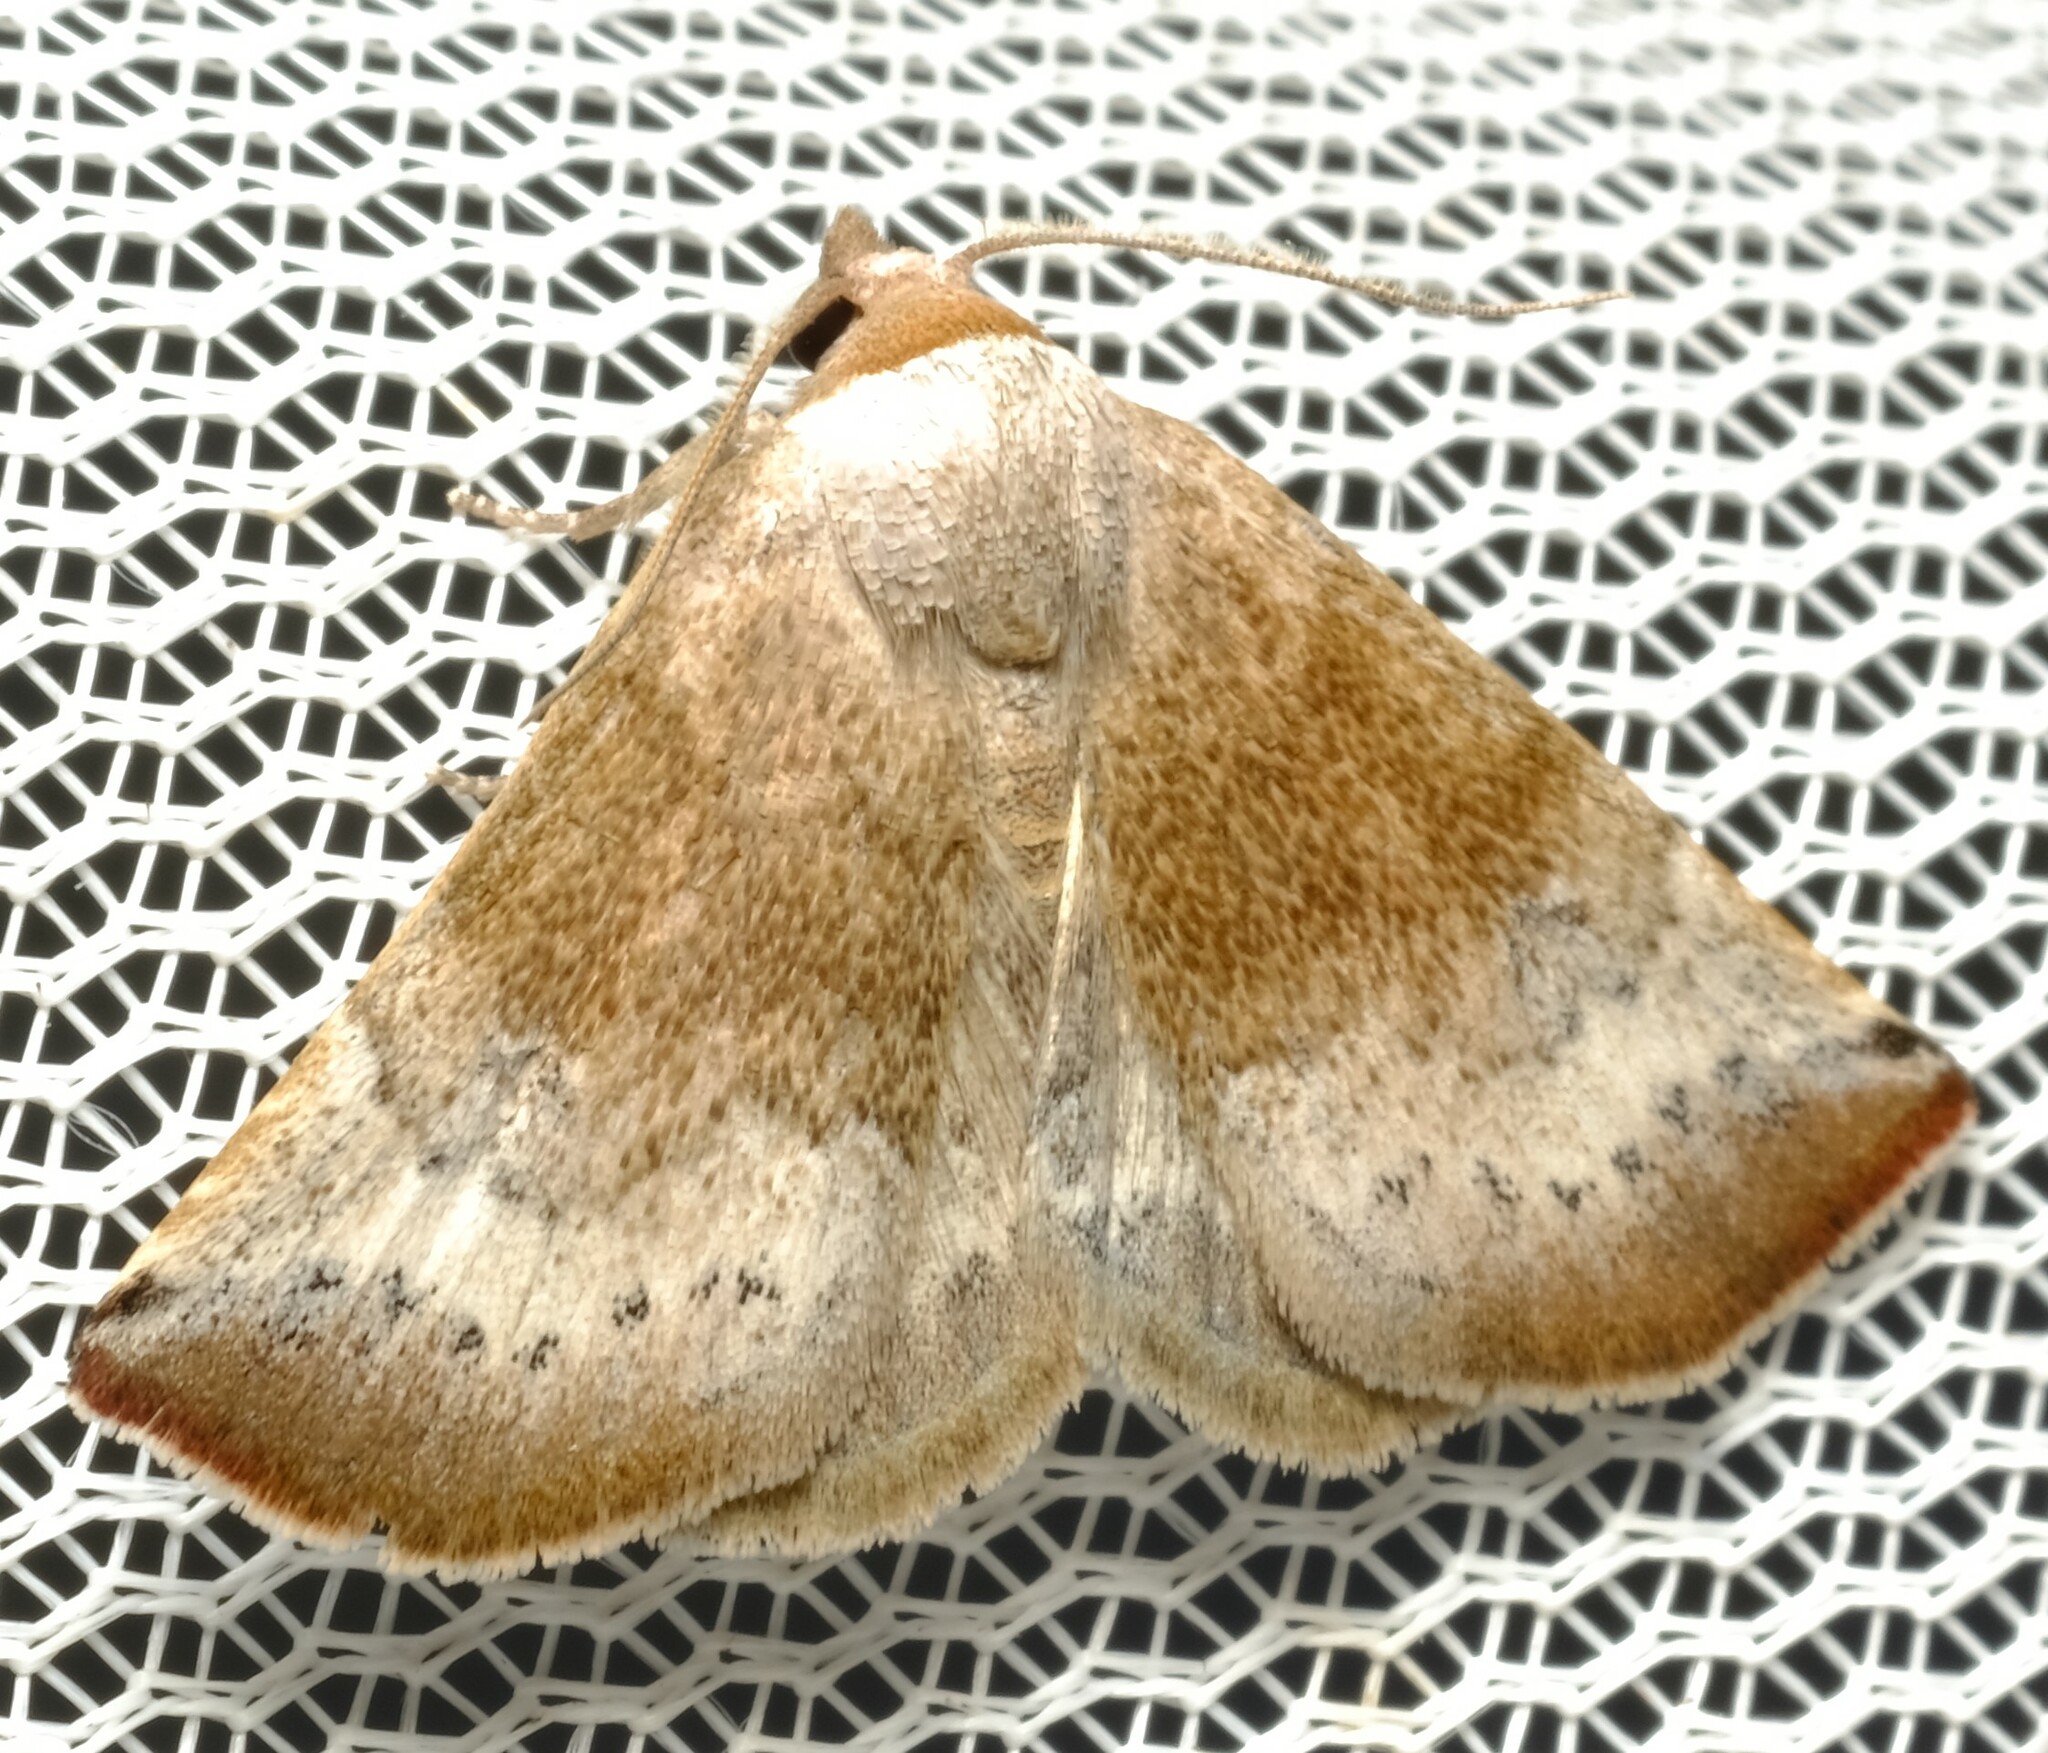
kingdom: Animalia
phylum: Arthropoda
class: Insecta
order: Lepidoptera
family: Noctuidae
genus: Mataeomera
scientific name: Mataeomera mesotaenia
